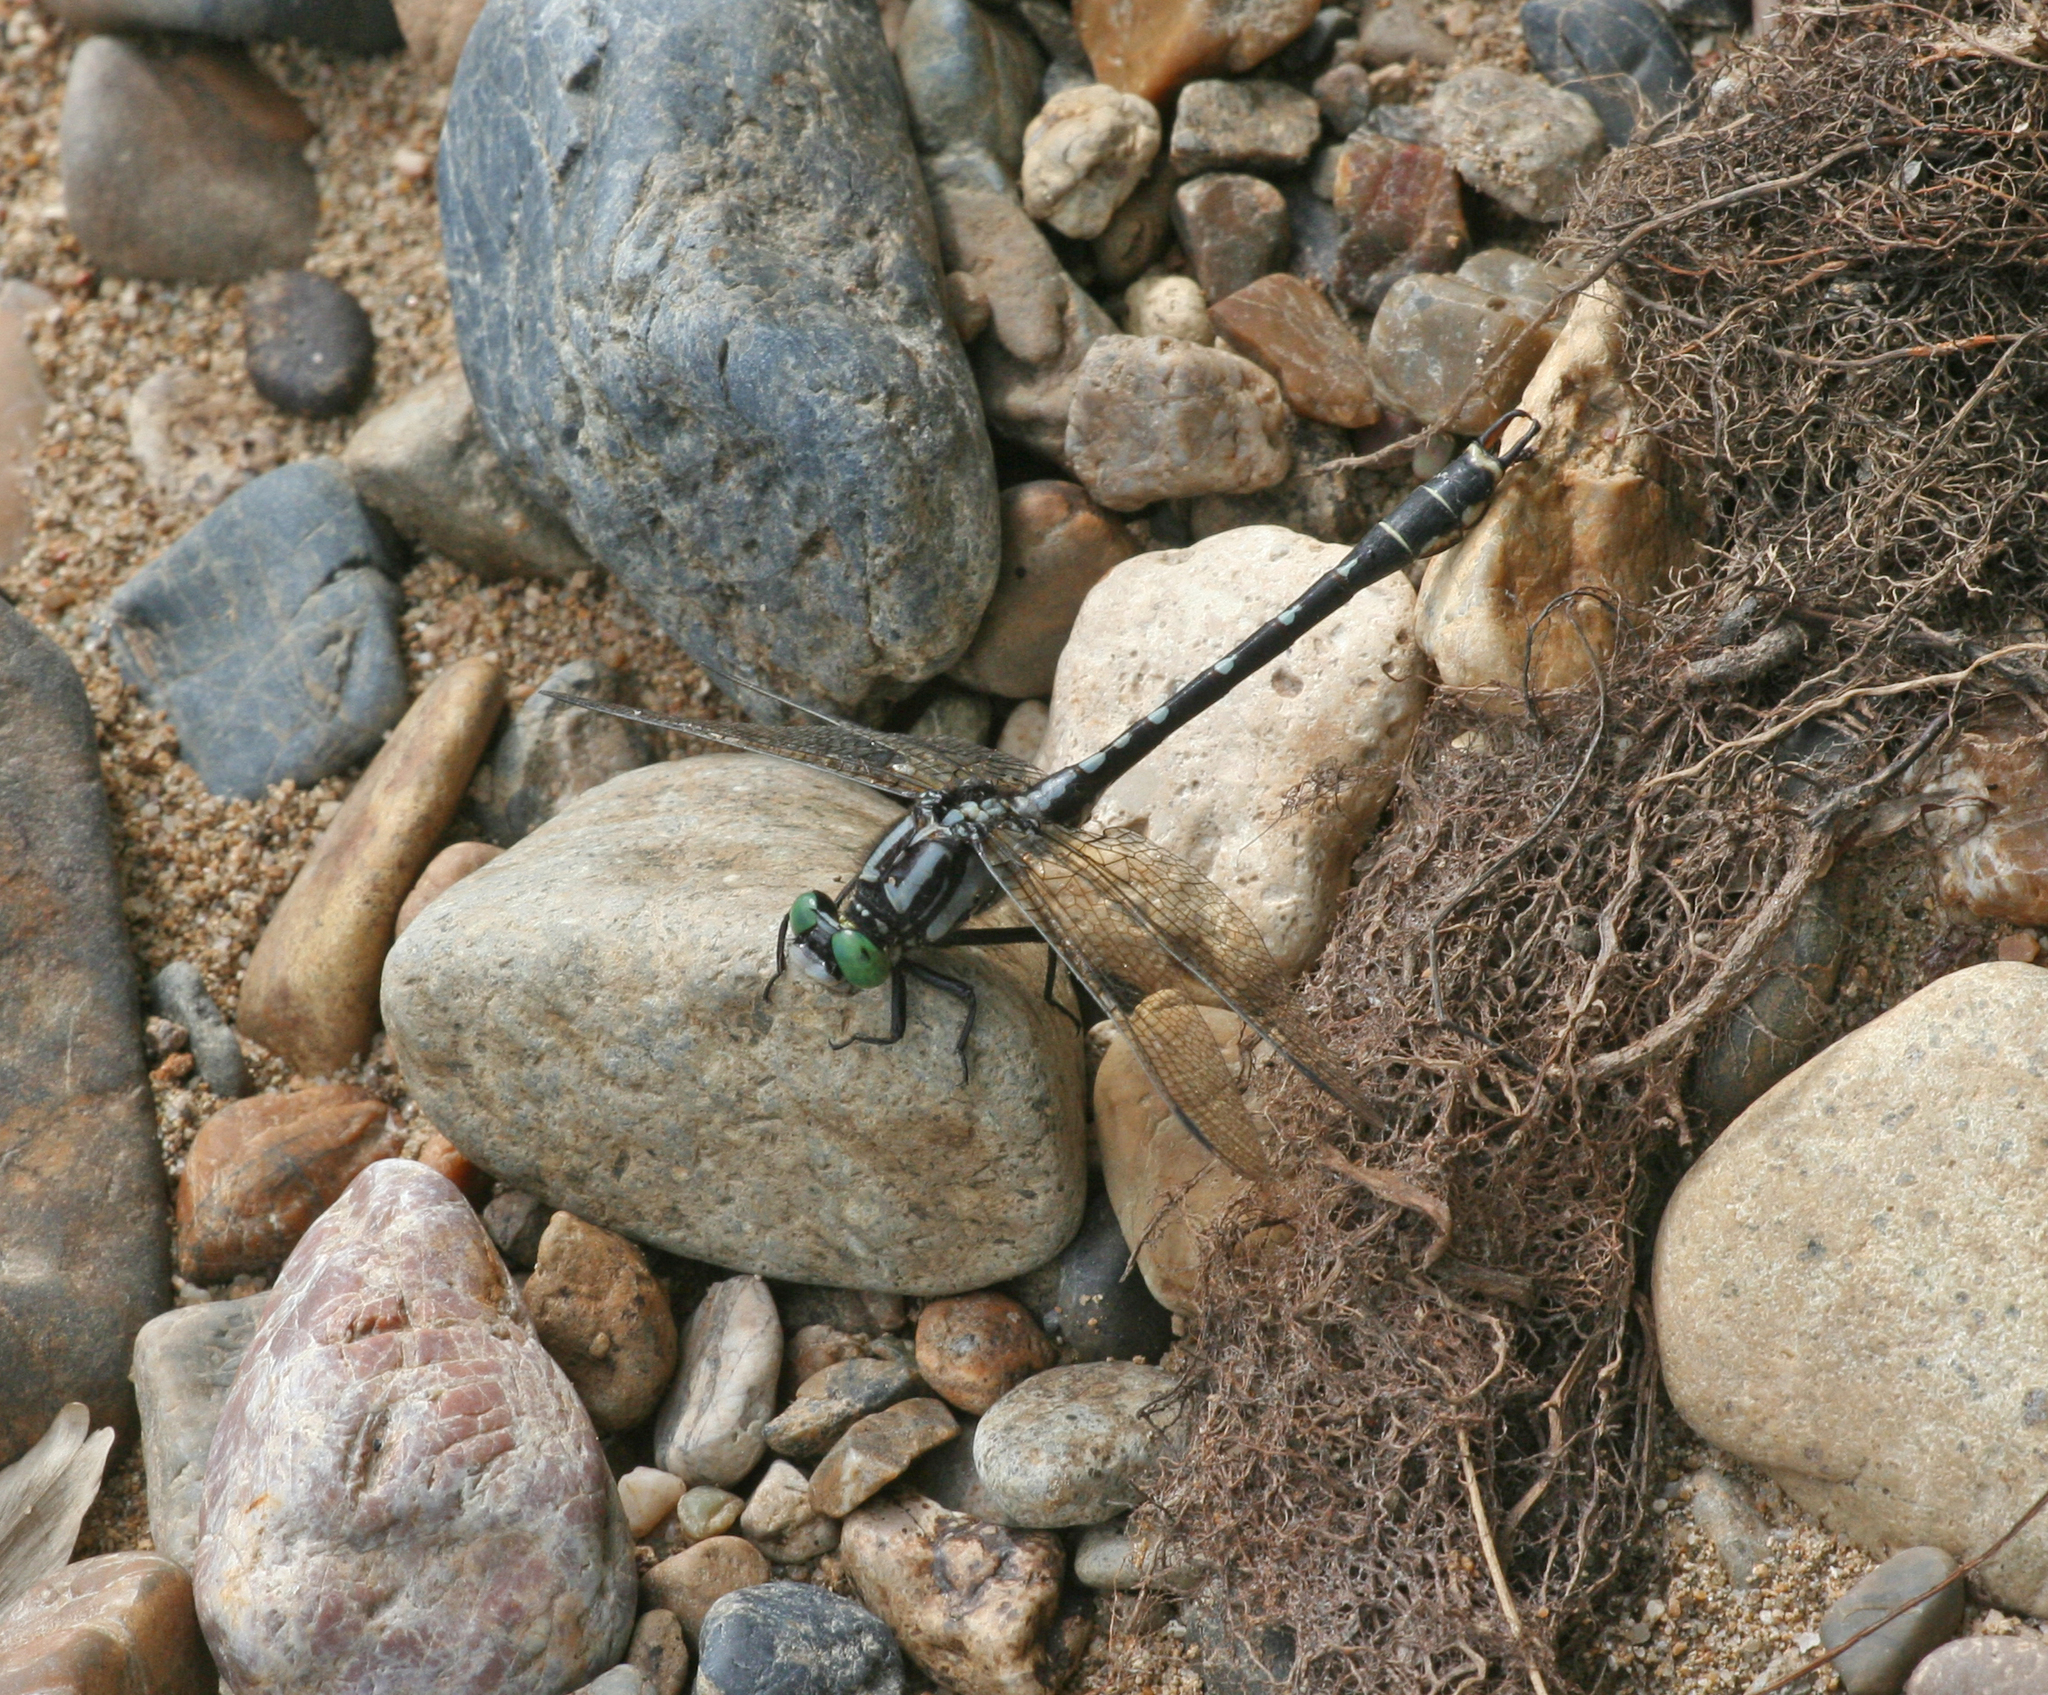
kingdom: Animalia
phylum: Arthropoda
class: Insecta
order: Odonata
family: Gomphidae
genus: Nihonogomphus
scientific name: Nihonogomphus ruptus
